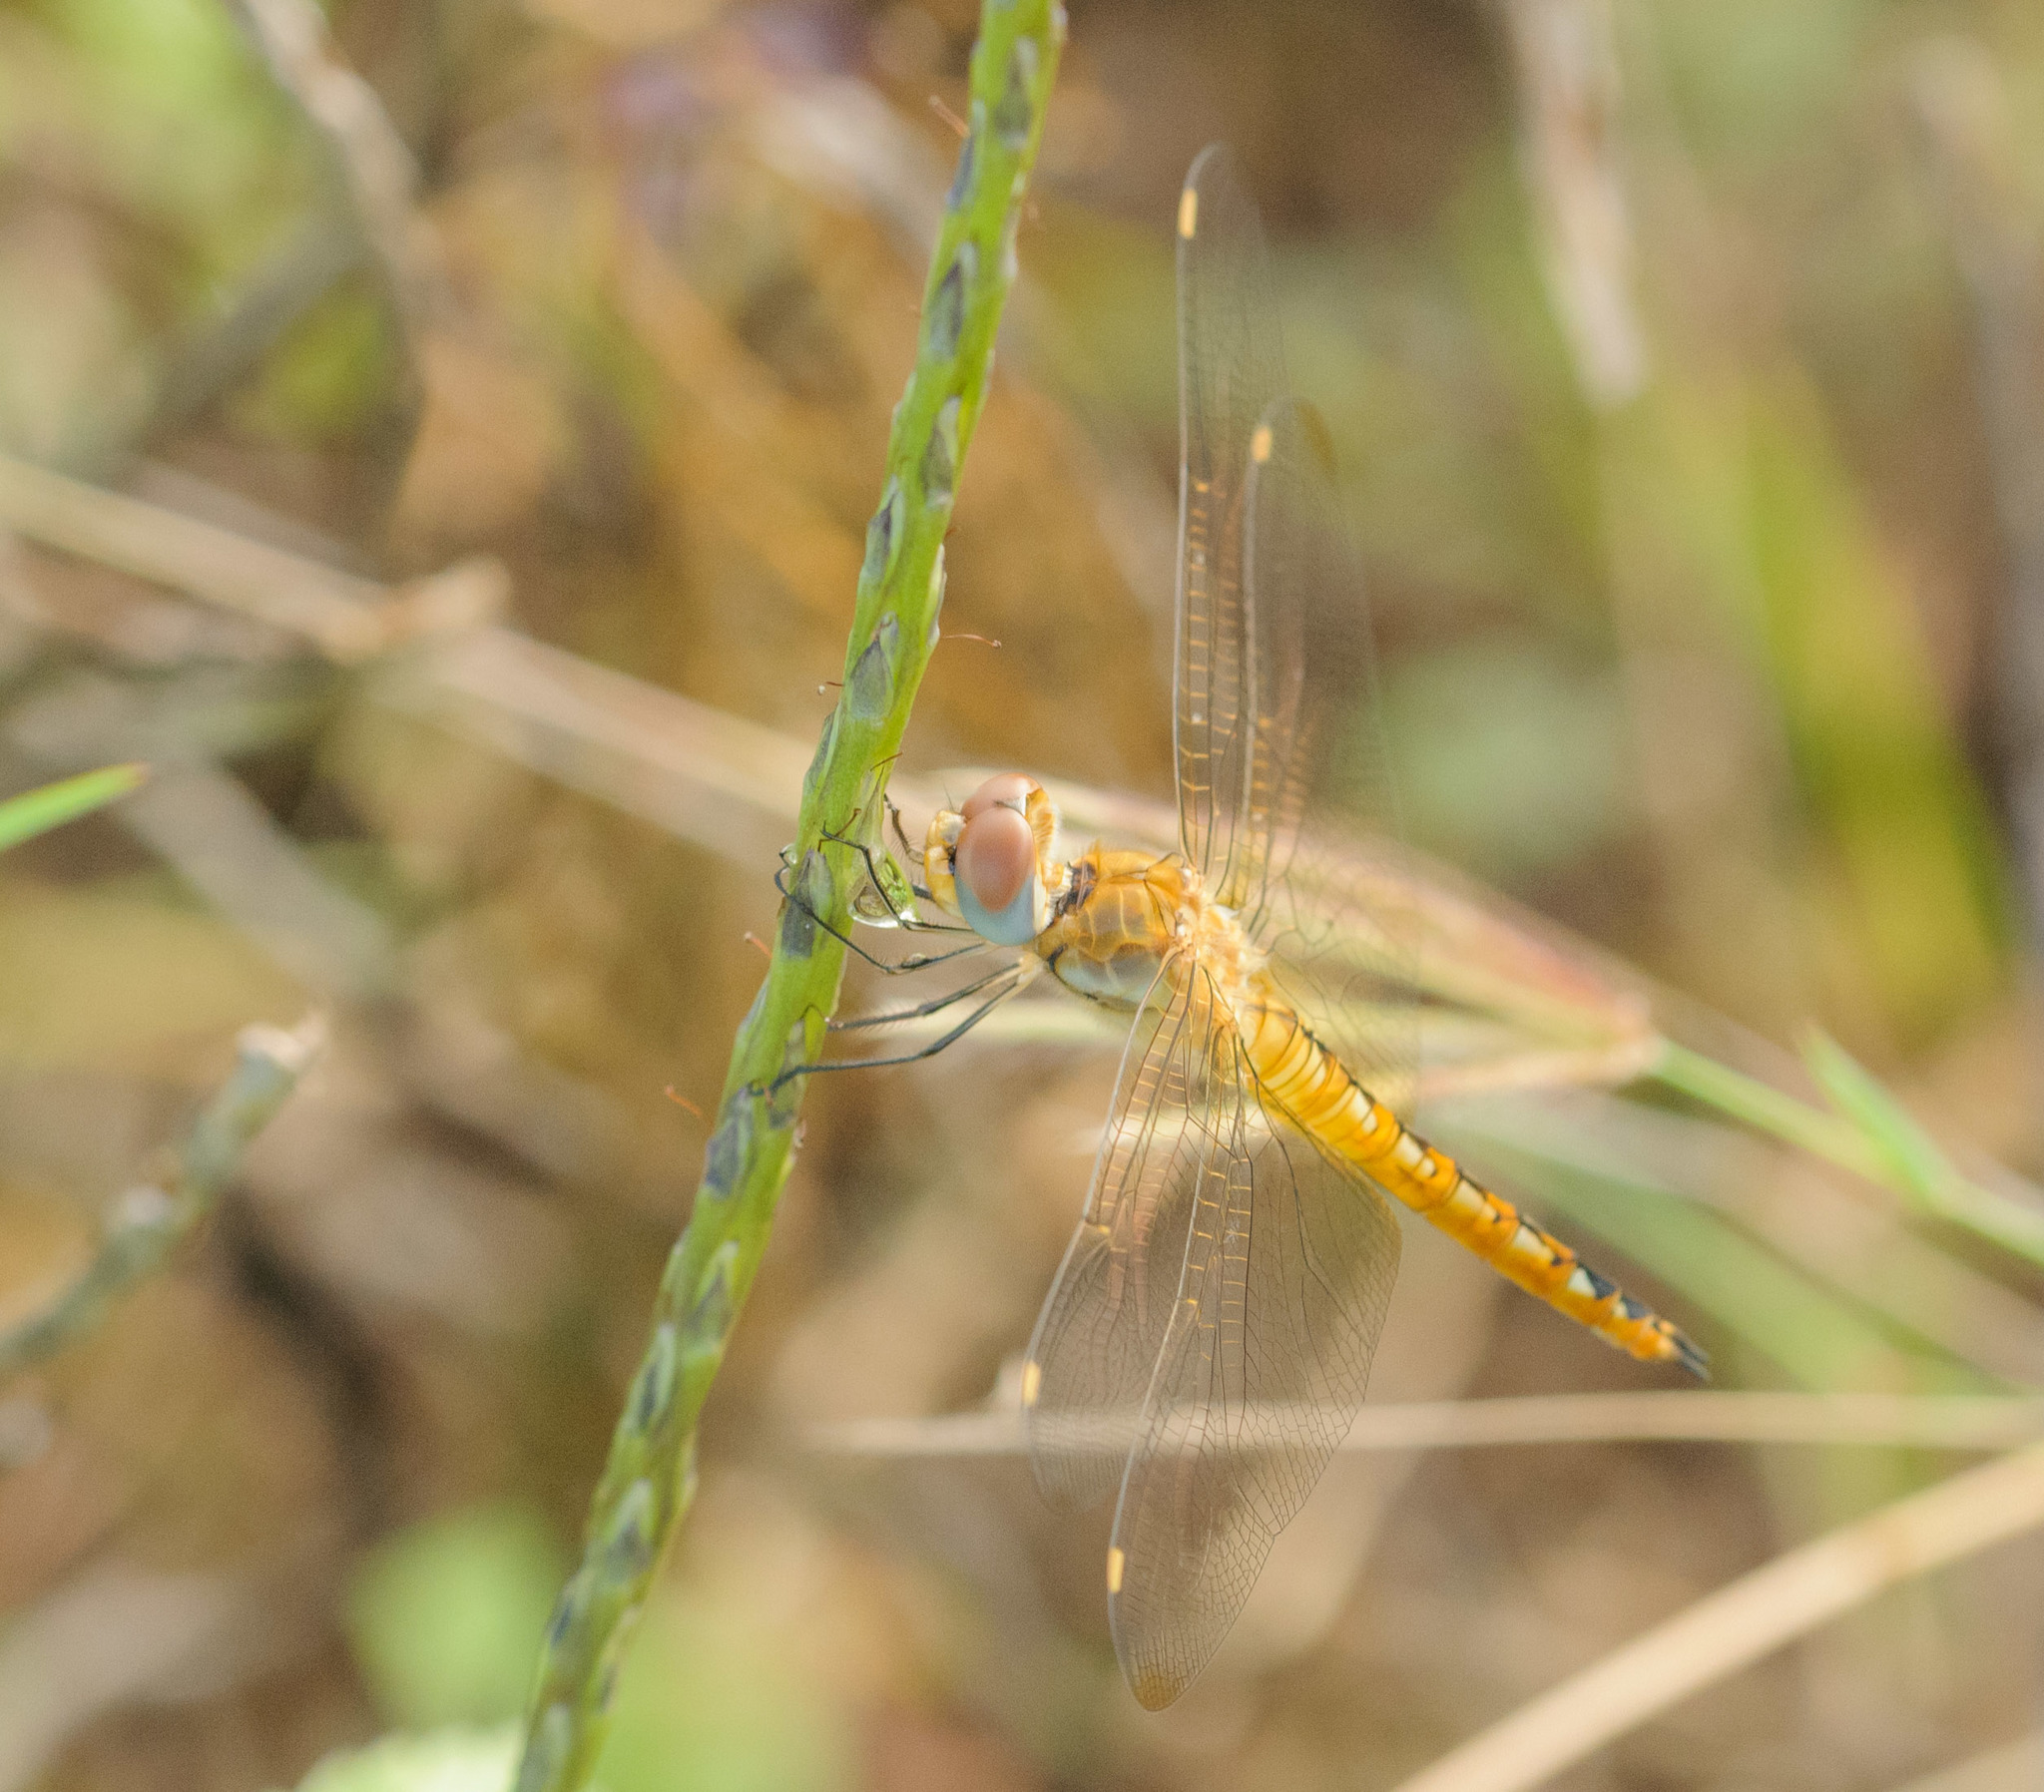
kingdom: Animalia
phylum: Arthropoda
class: Insecta
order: Odonata
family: Libellulidae
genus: Pantala
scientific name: Pantala flavescens
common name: Wandering glider
